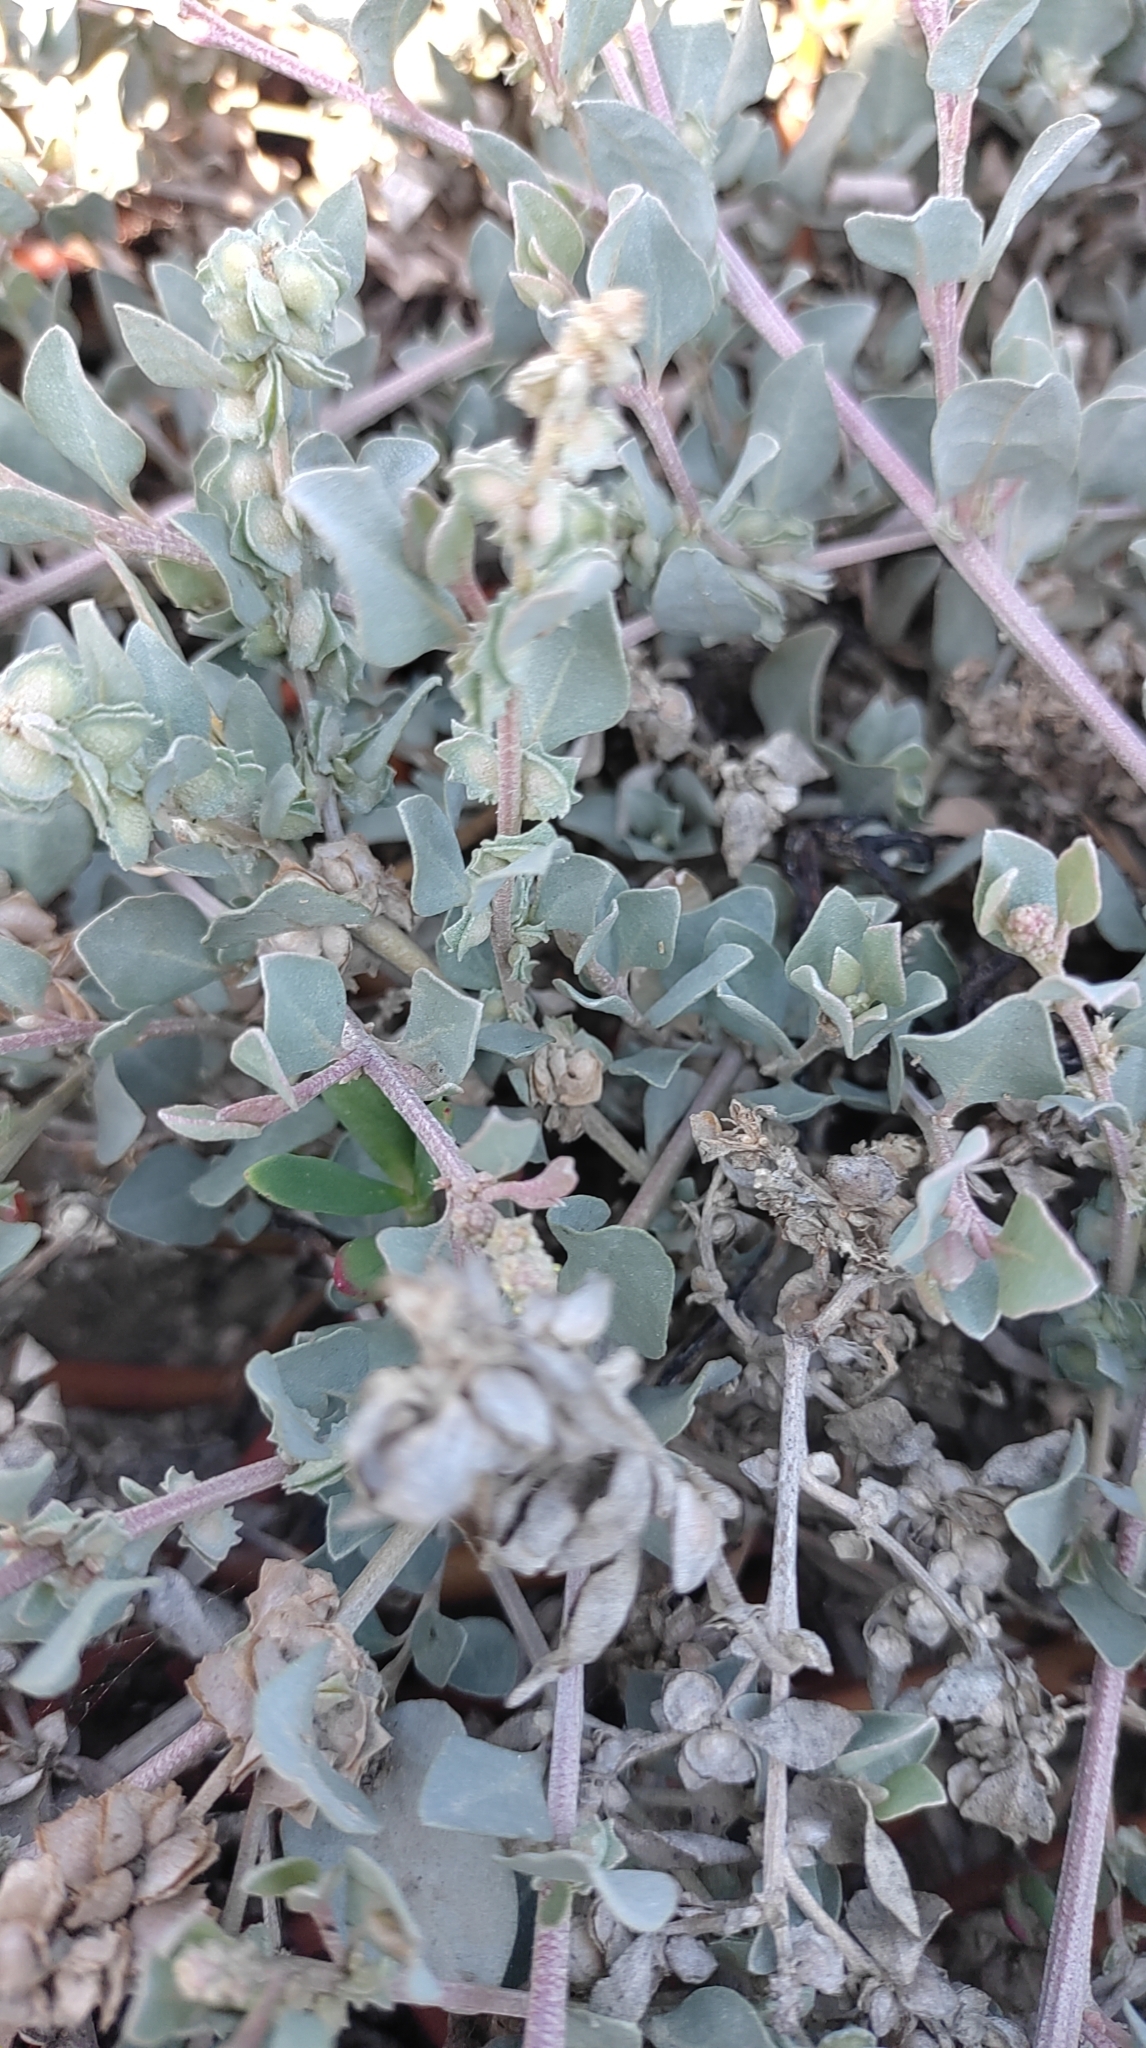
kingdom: Plantae
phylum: Tracheophyta
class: Magnoliopsida
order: Caryophyllales
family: Amaranthaceae
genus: Atriplex
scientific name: Atriplex maximowicziana
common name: Maximowicz's saltbush
